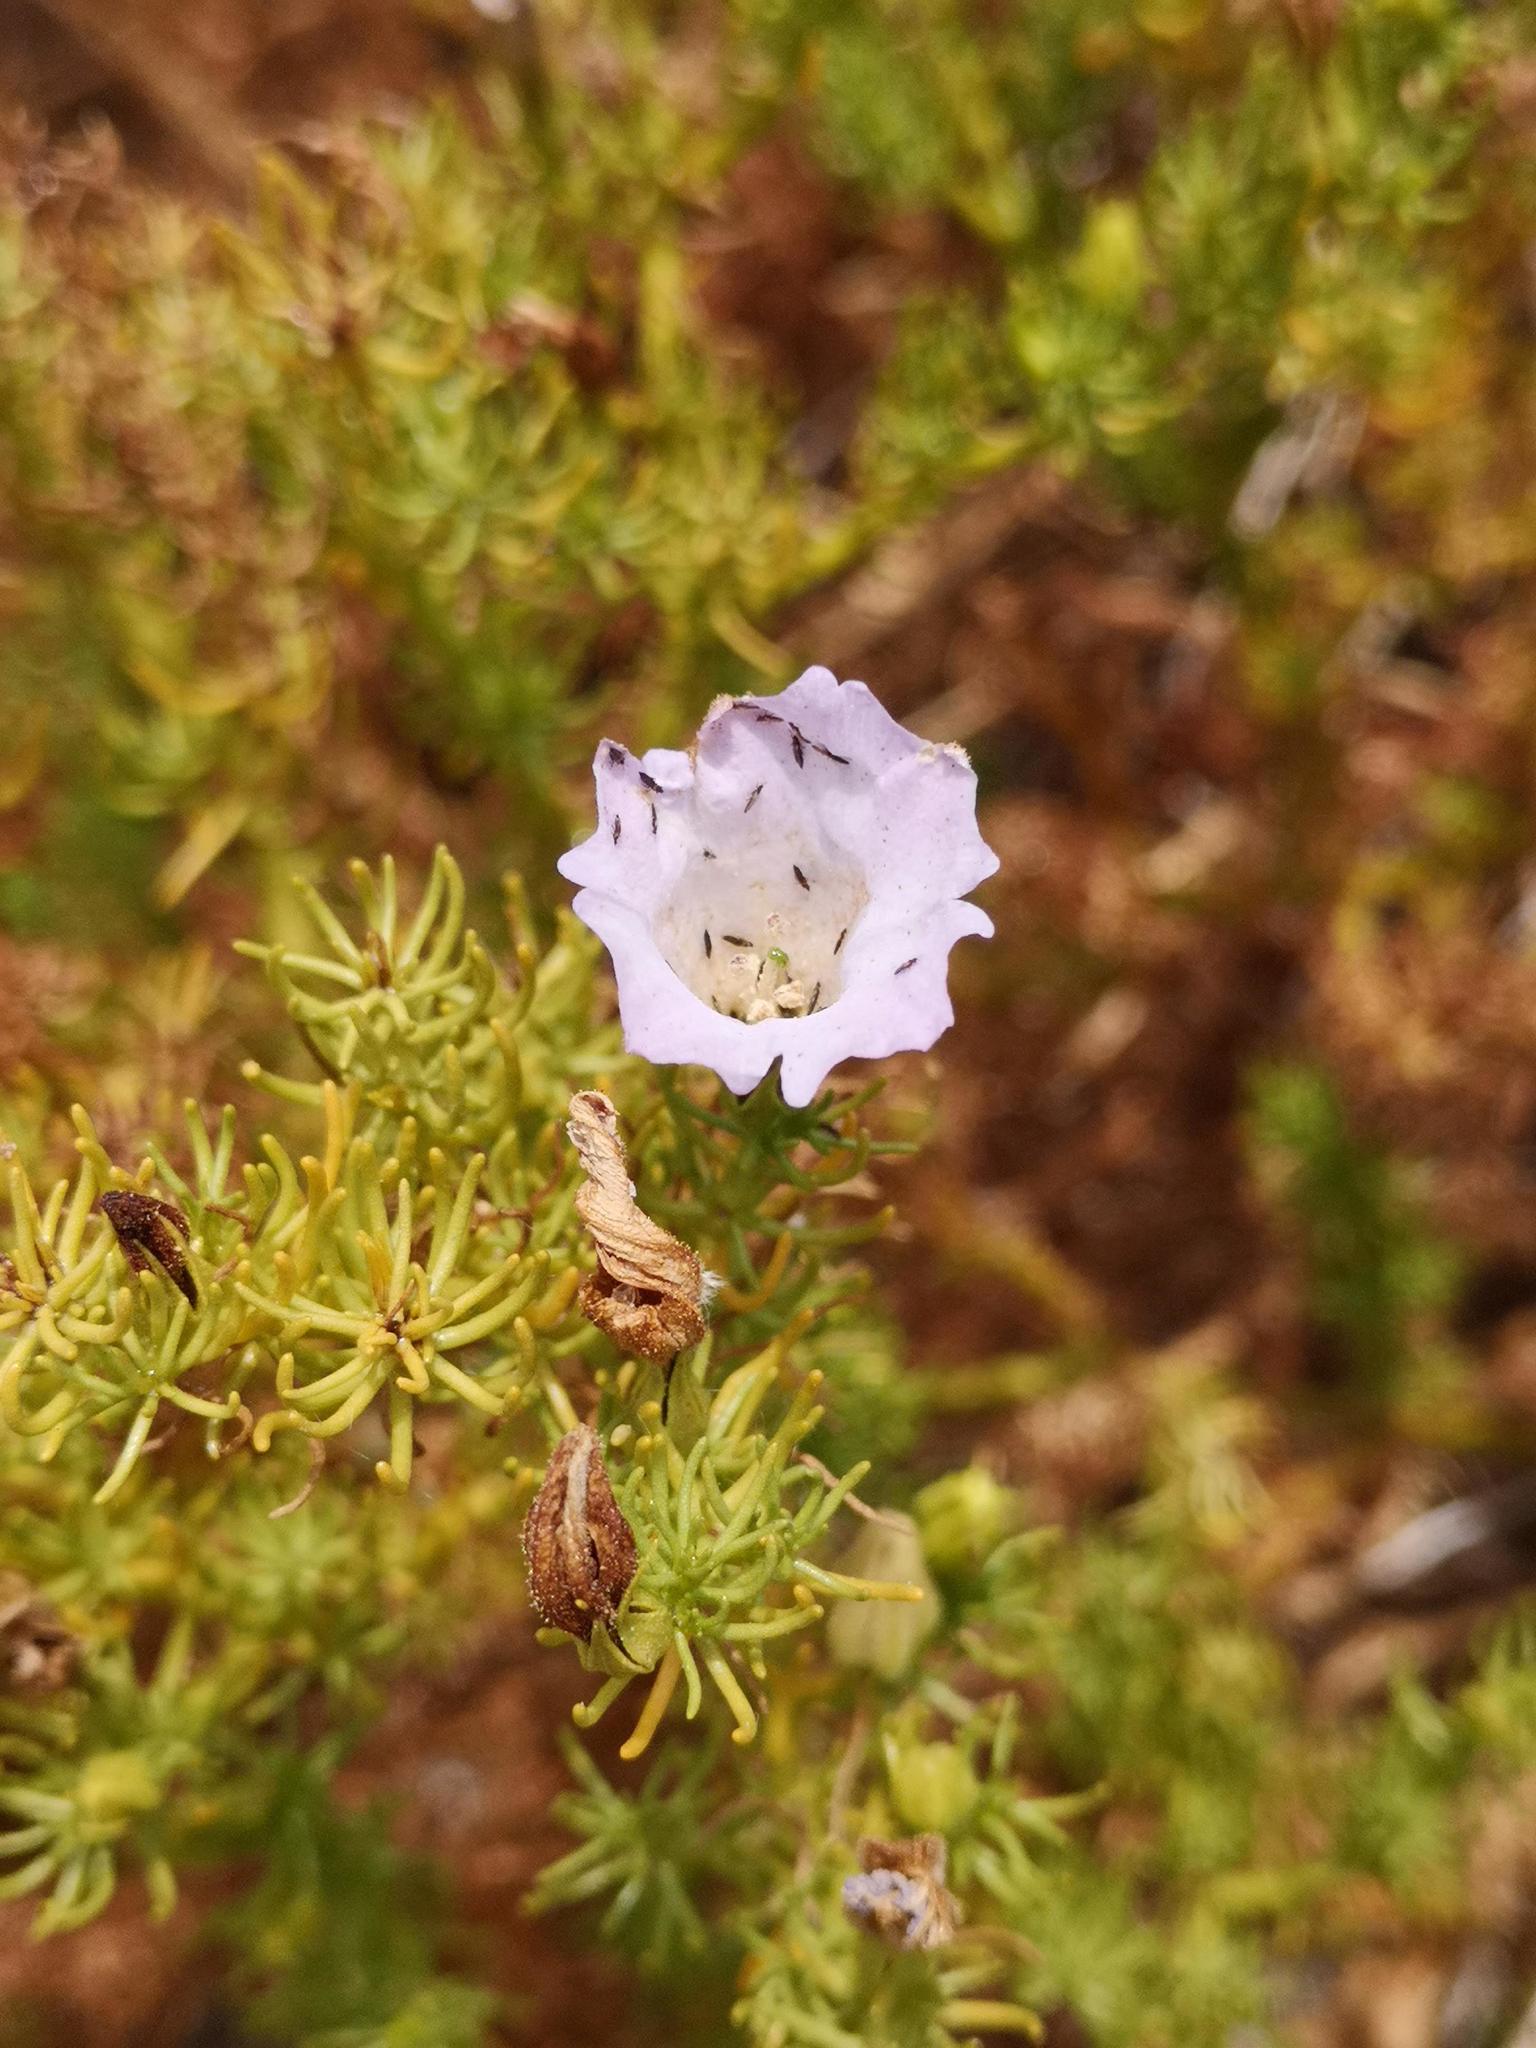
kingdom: Plantae
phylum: Tracheophyta
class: Magnoliopsida
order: Solanales
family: Solanaceae
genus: Nolana
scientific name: Nolana balsamiflua
